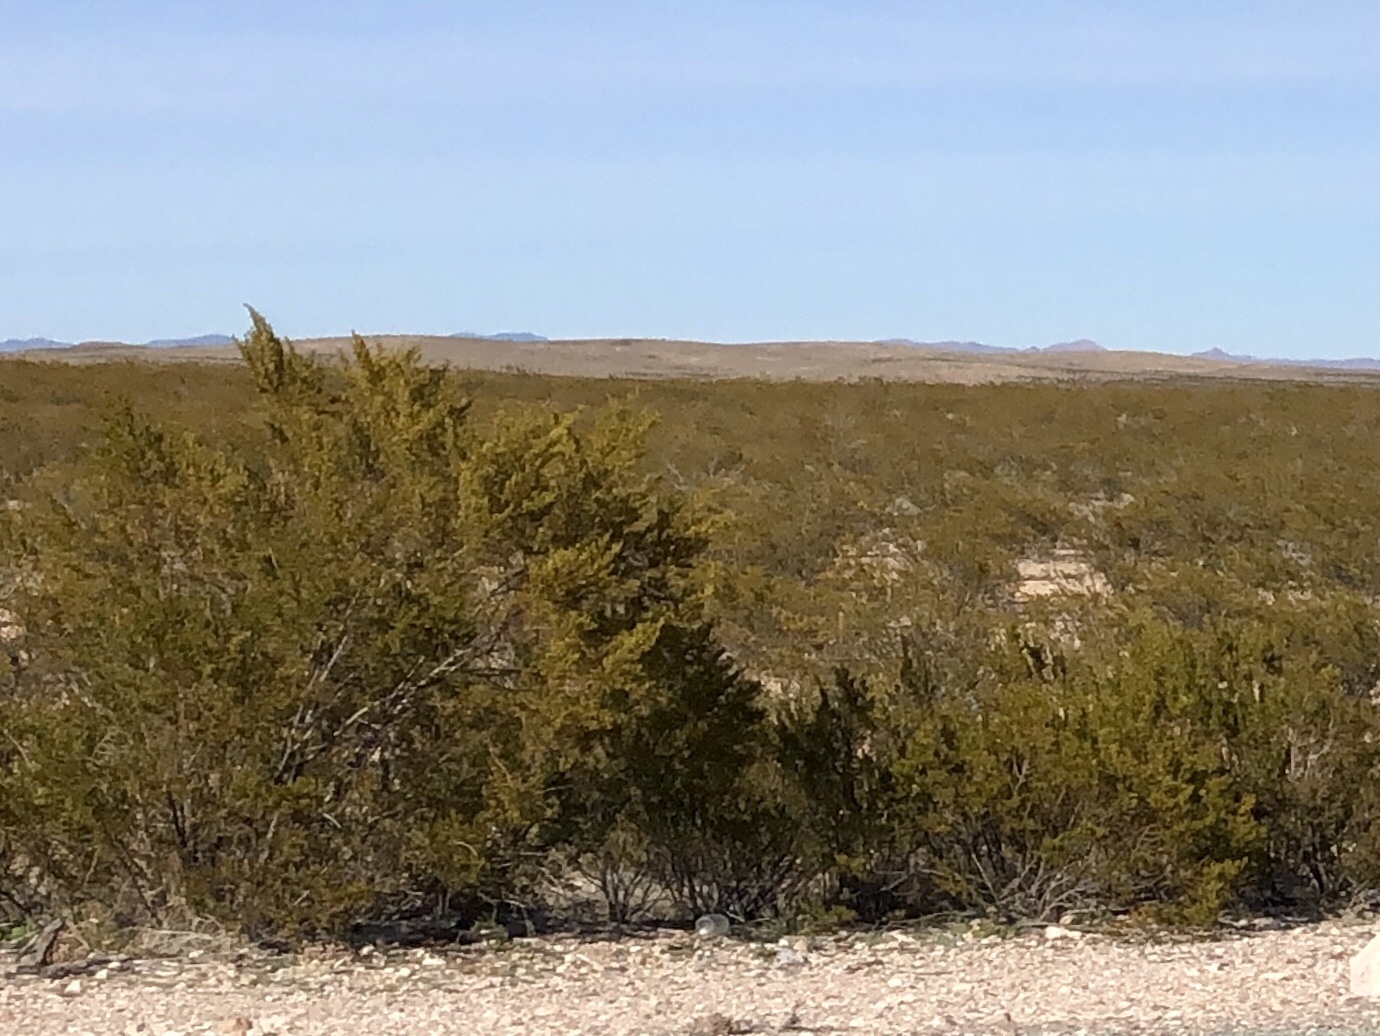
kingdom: Plantae
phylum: Tracheophyta
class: Magnoliopsida
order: Zygophyllales
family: Zygophyllaceae
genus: Larrea
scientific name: Larrea tridentata
